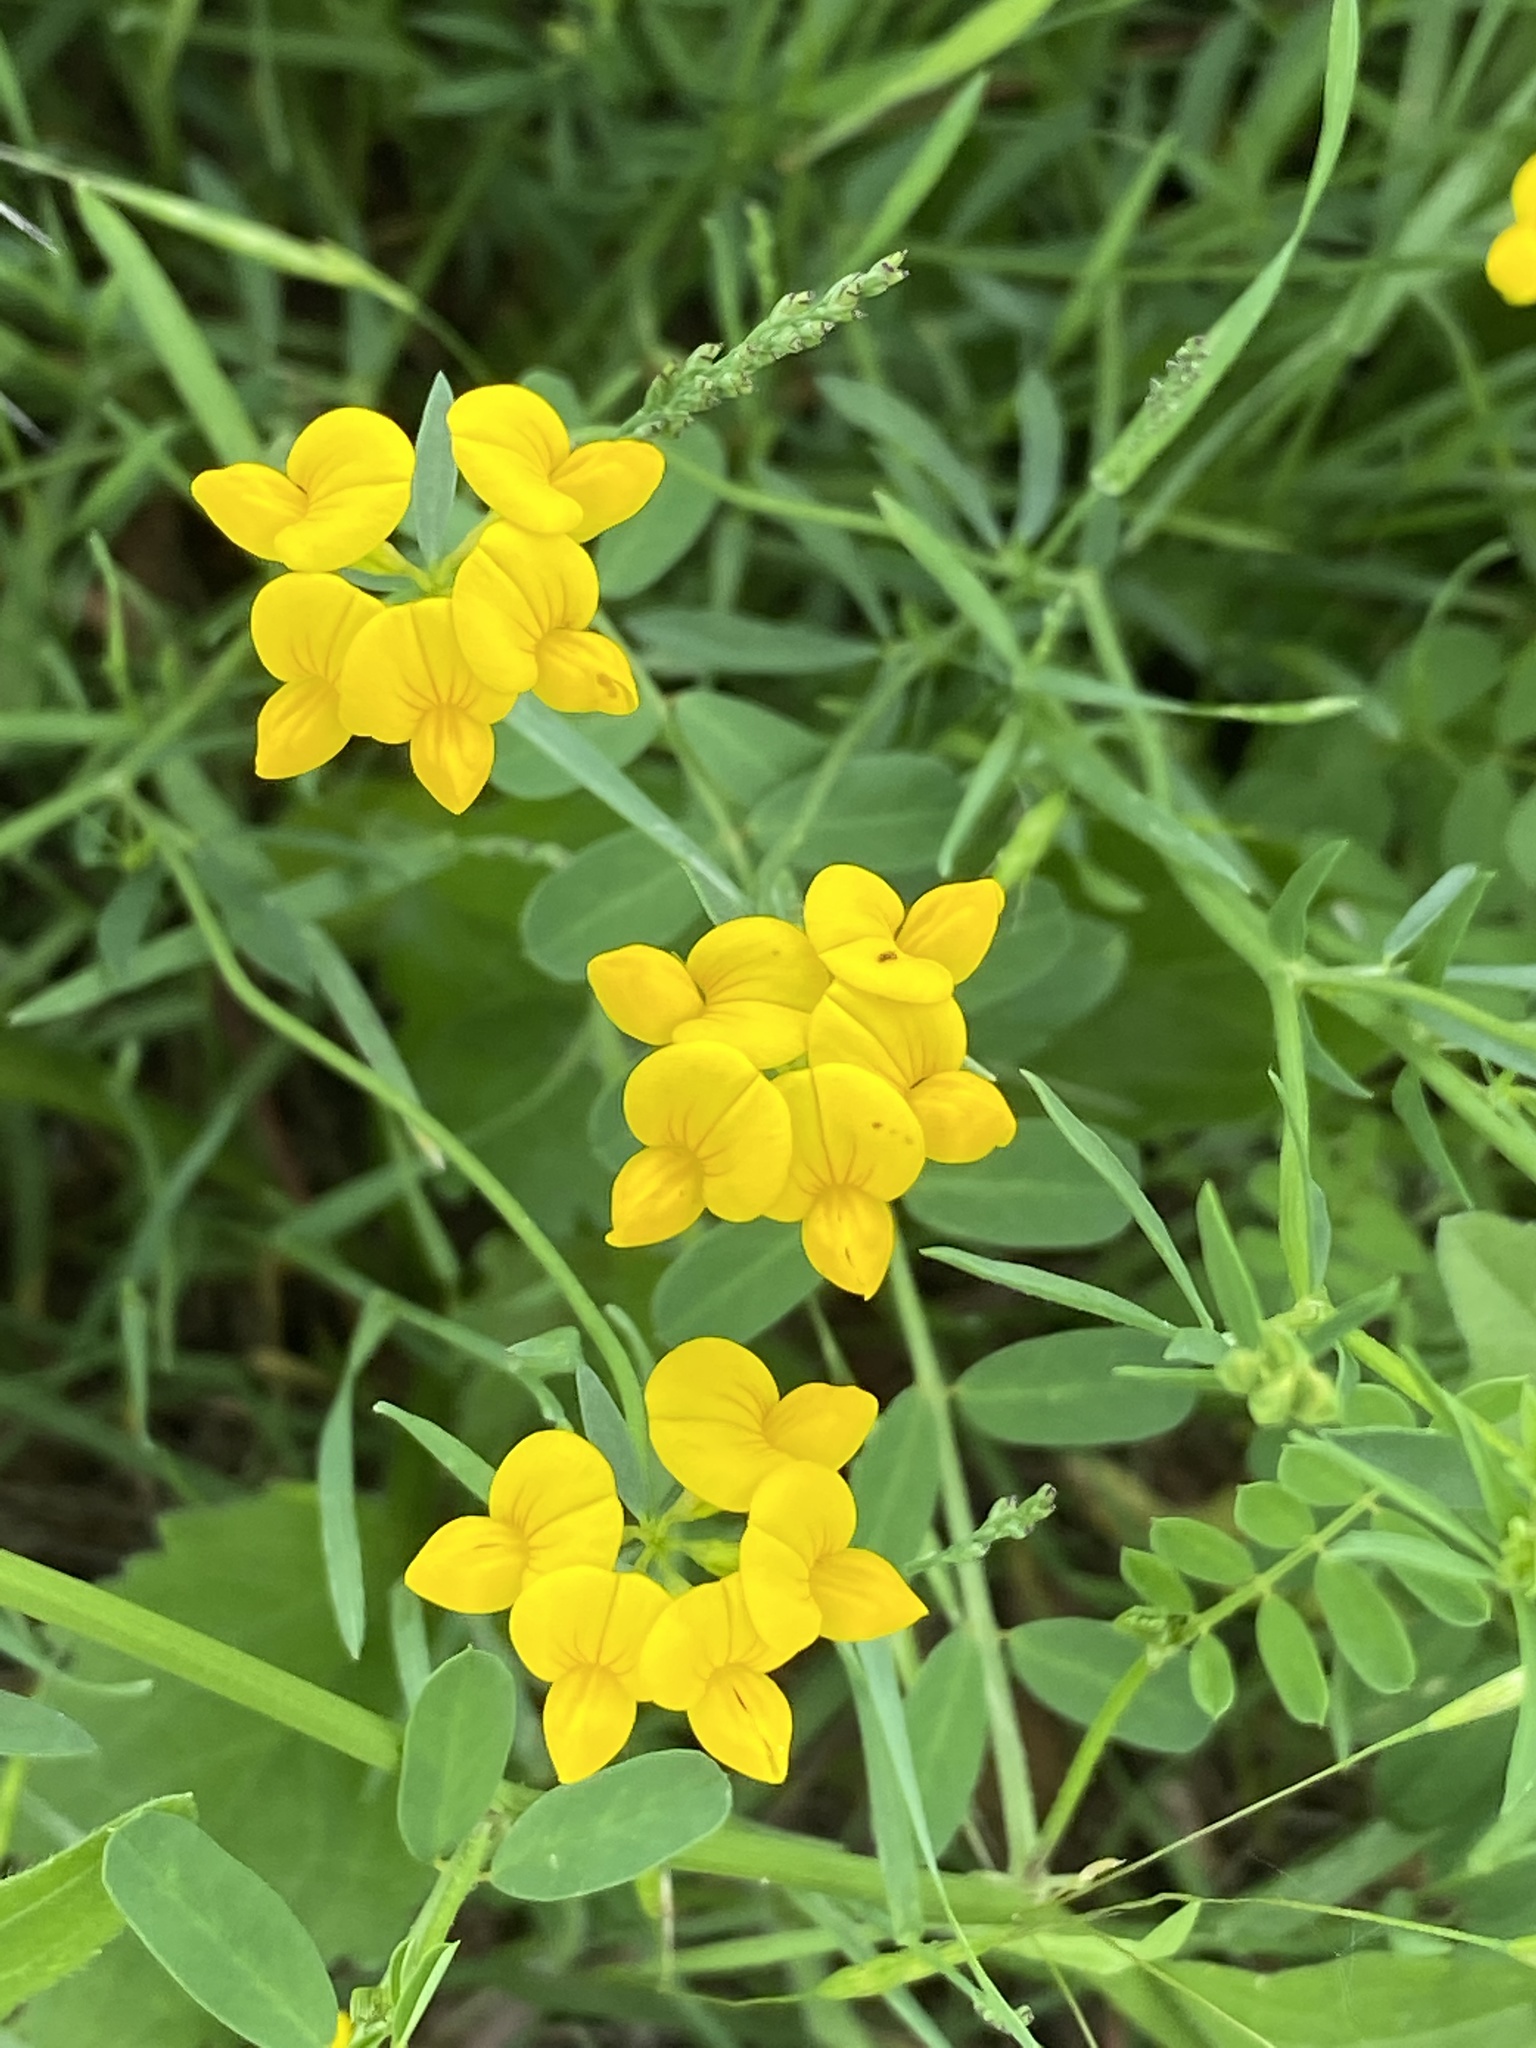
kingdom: Plantae
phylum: Tracheophyta
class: Magnoliopsida
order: Fabales
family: Fabaceae
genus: Lotus
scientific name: Lotus corniculatus
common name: Common bird's-foot-trefoil
